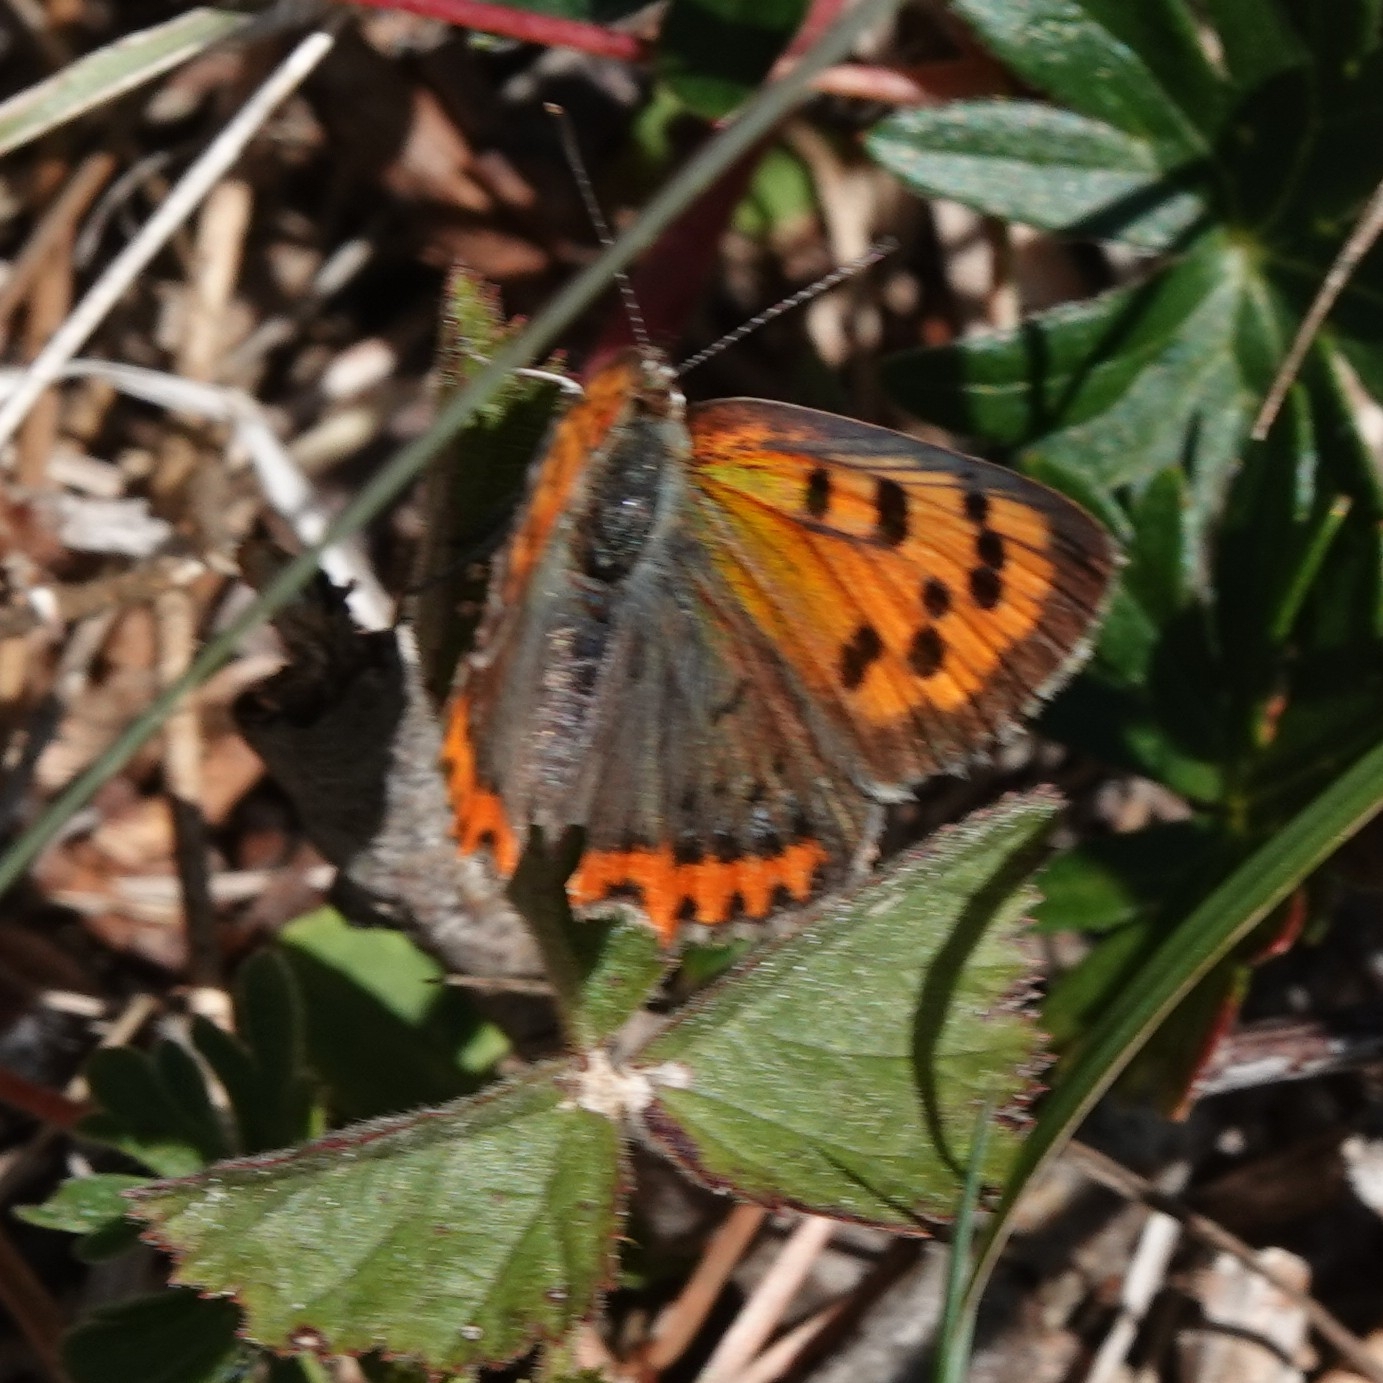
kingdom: Animalia
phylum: Arthropoda
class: Insecta
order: Lepidoptera
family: Lycaenidae
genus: Lycaena
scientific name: Lycaena phlaeas
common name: Small copper
